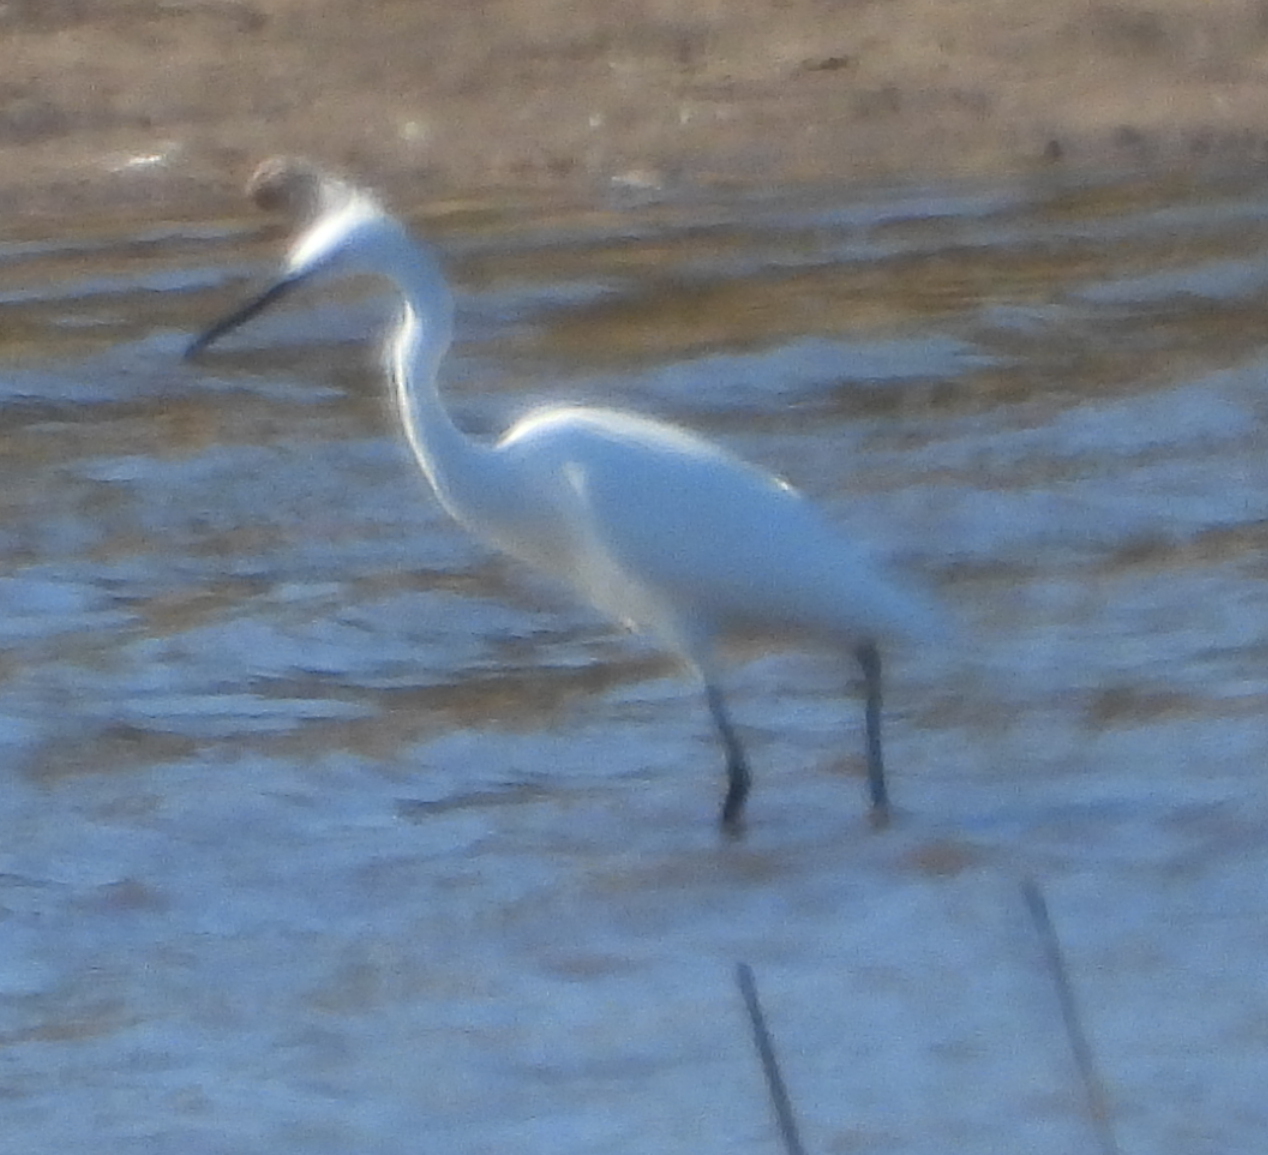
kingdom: Animalia
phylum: Chordata
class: Aves
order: Pelecaniformes
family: Ardeidae
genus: Egretta
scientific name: Egretta garzetta
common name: Little egret
